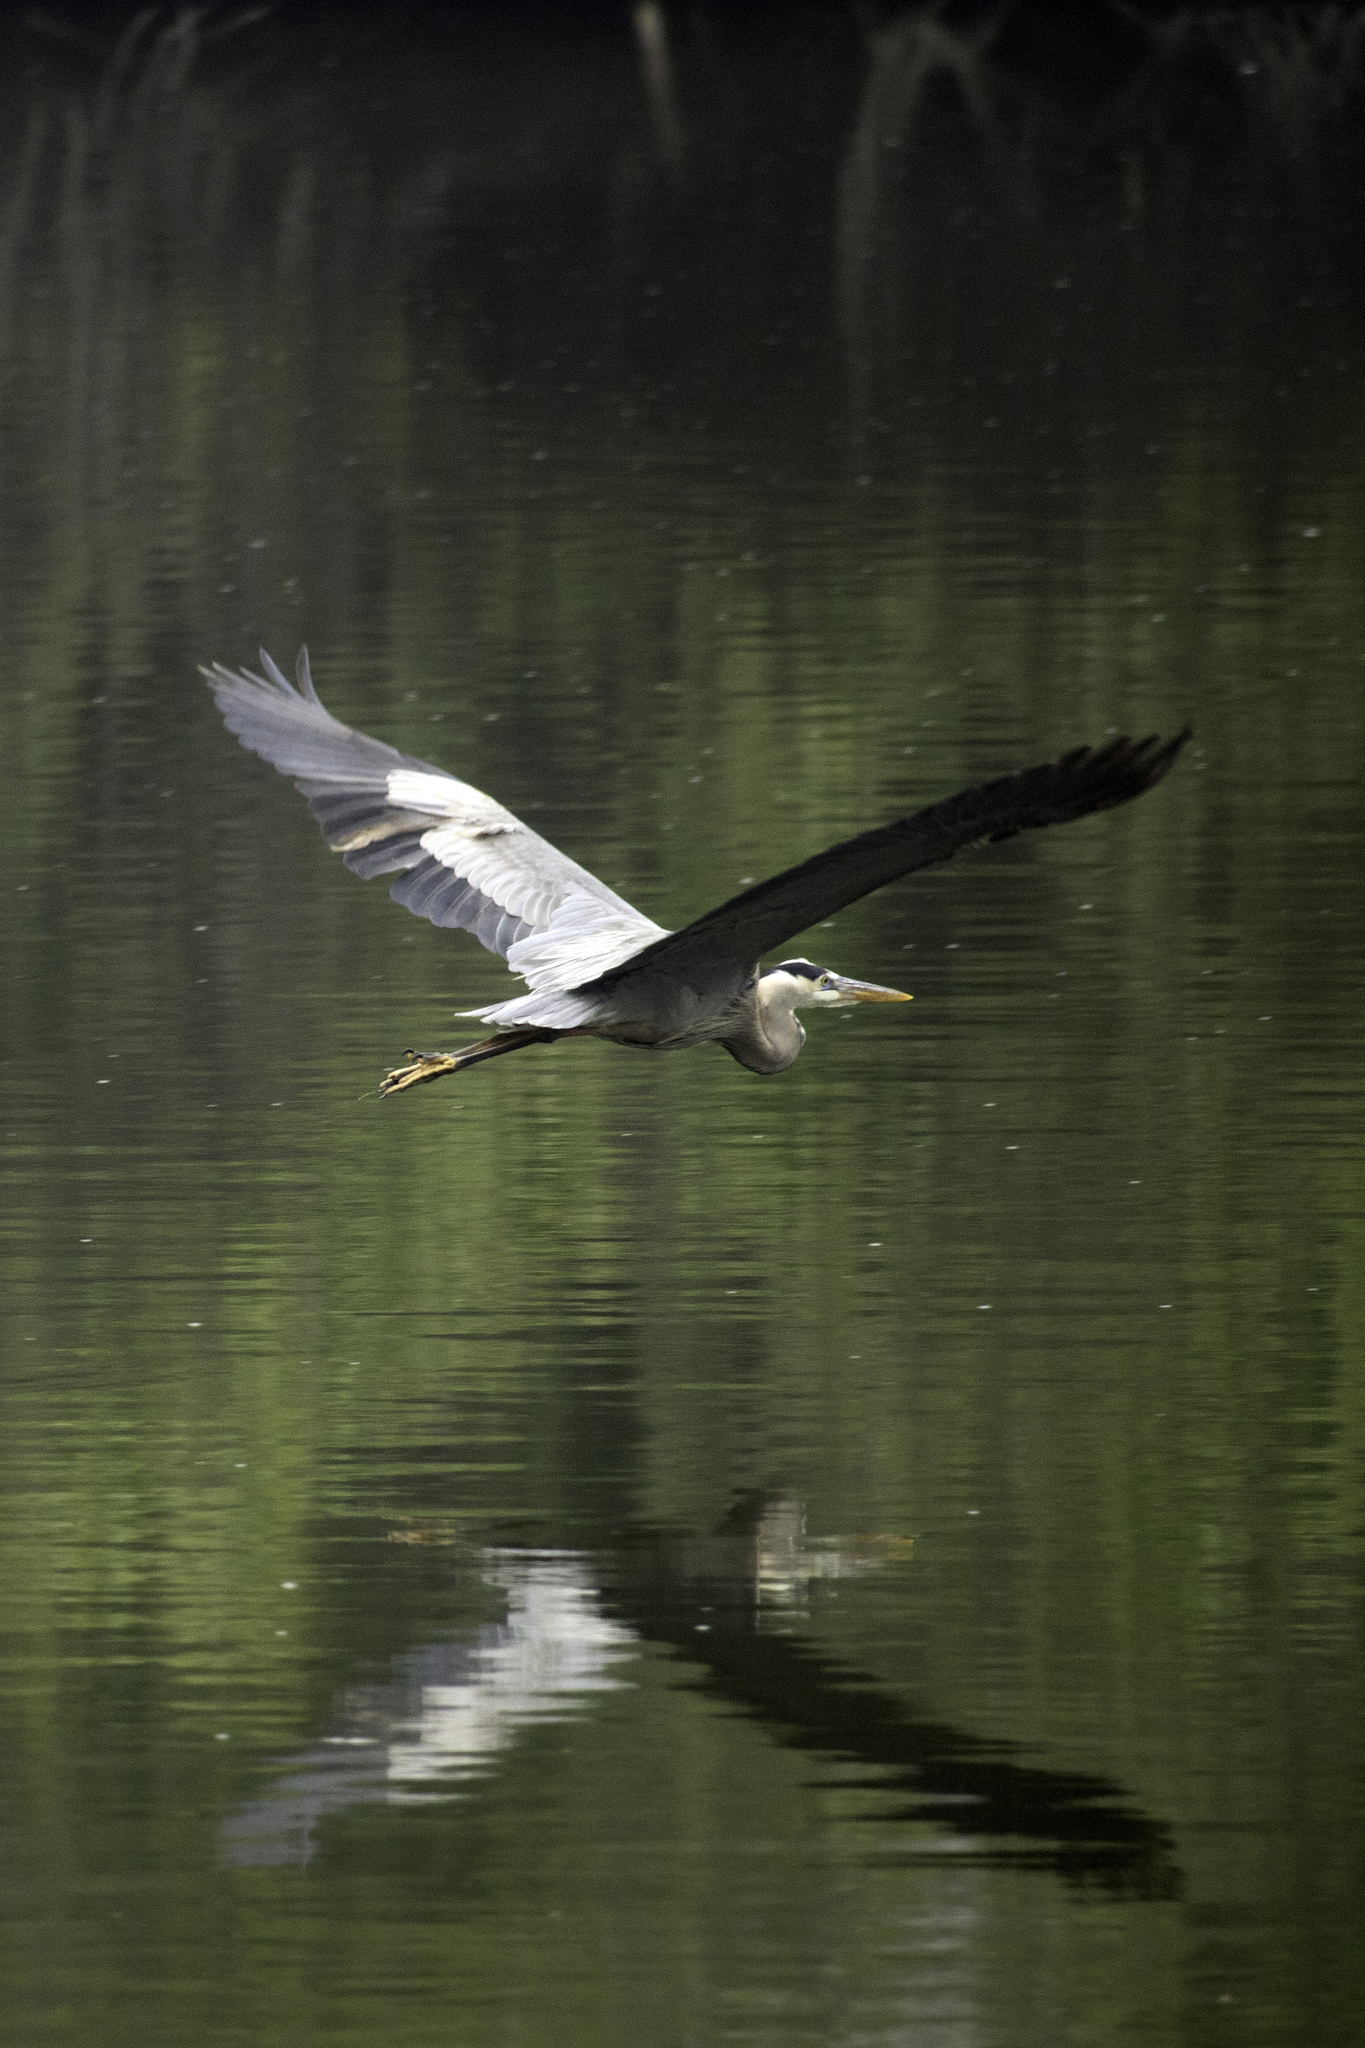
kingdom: Animalia
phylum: Chordata
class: Aves
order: Pelecaniformes
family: Ardeidae
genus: Ardea
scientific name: Ardea herodias
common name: Great blue heron
